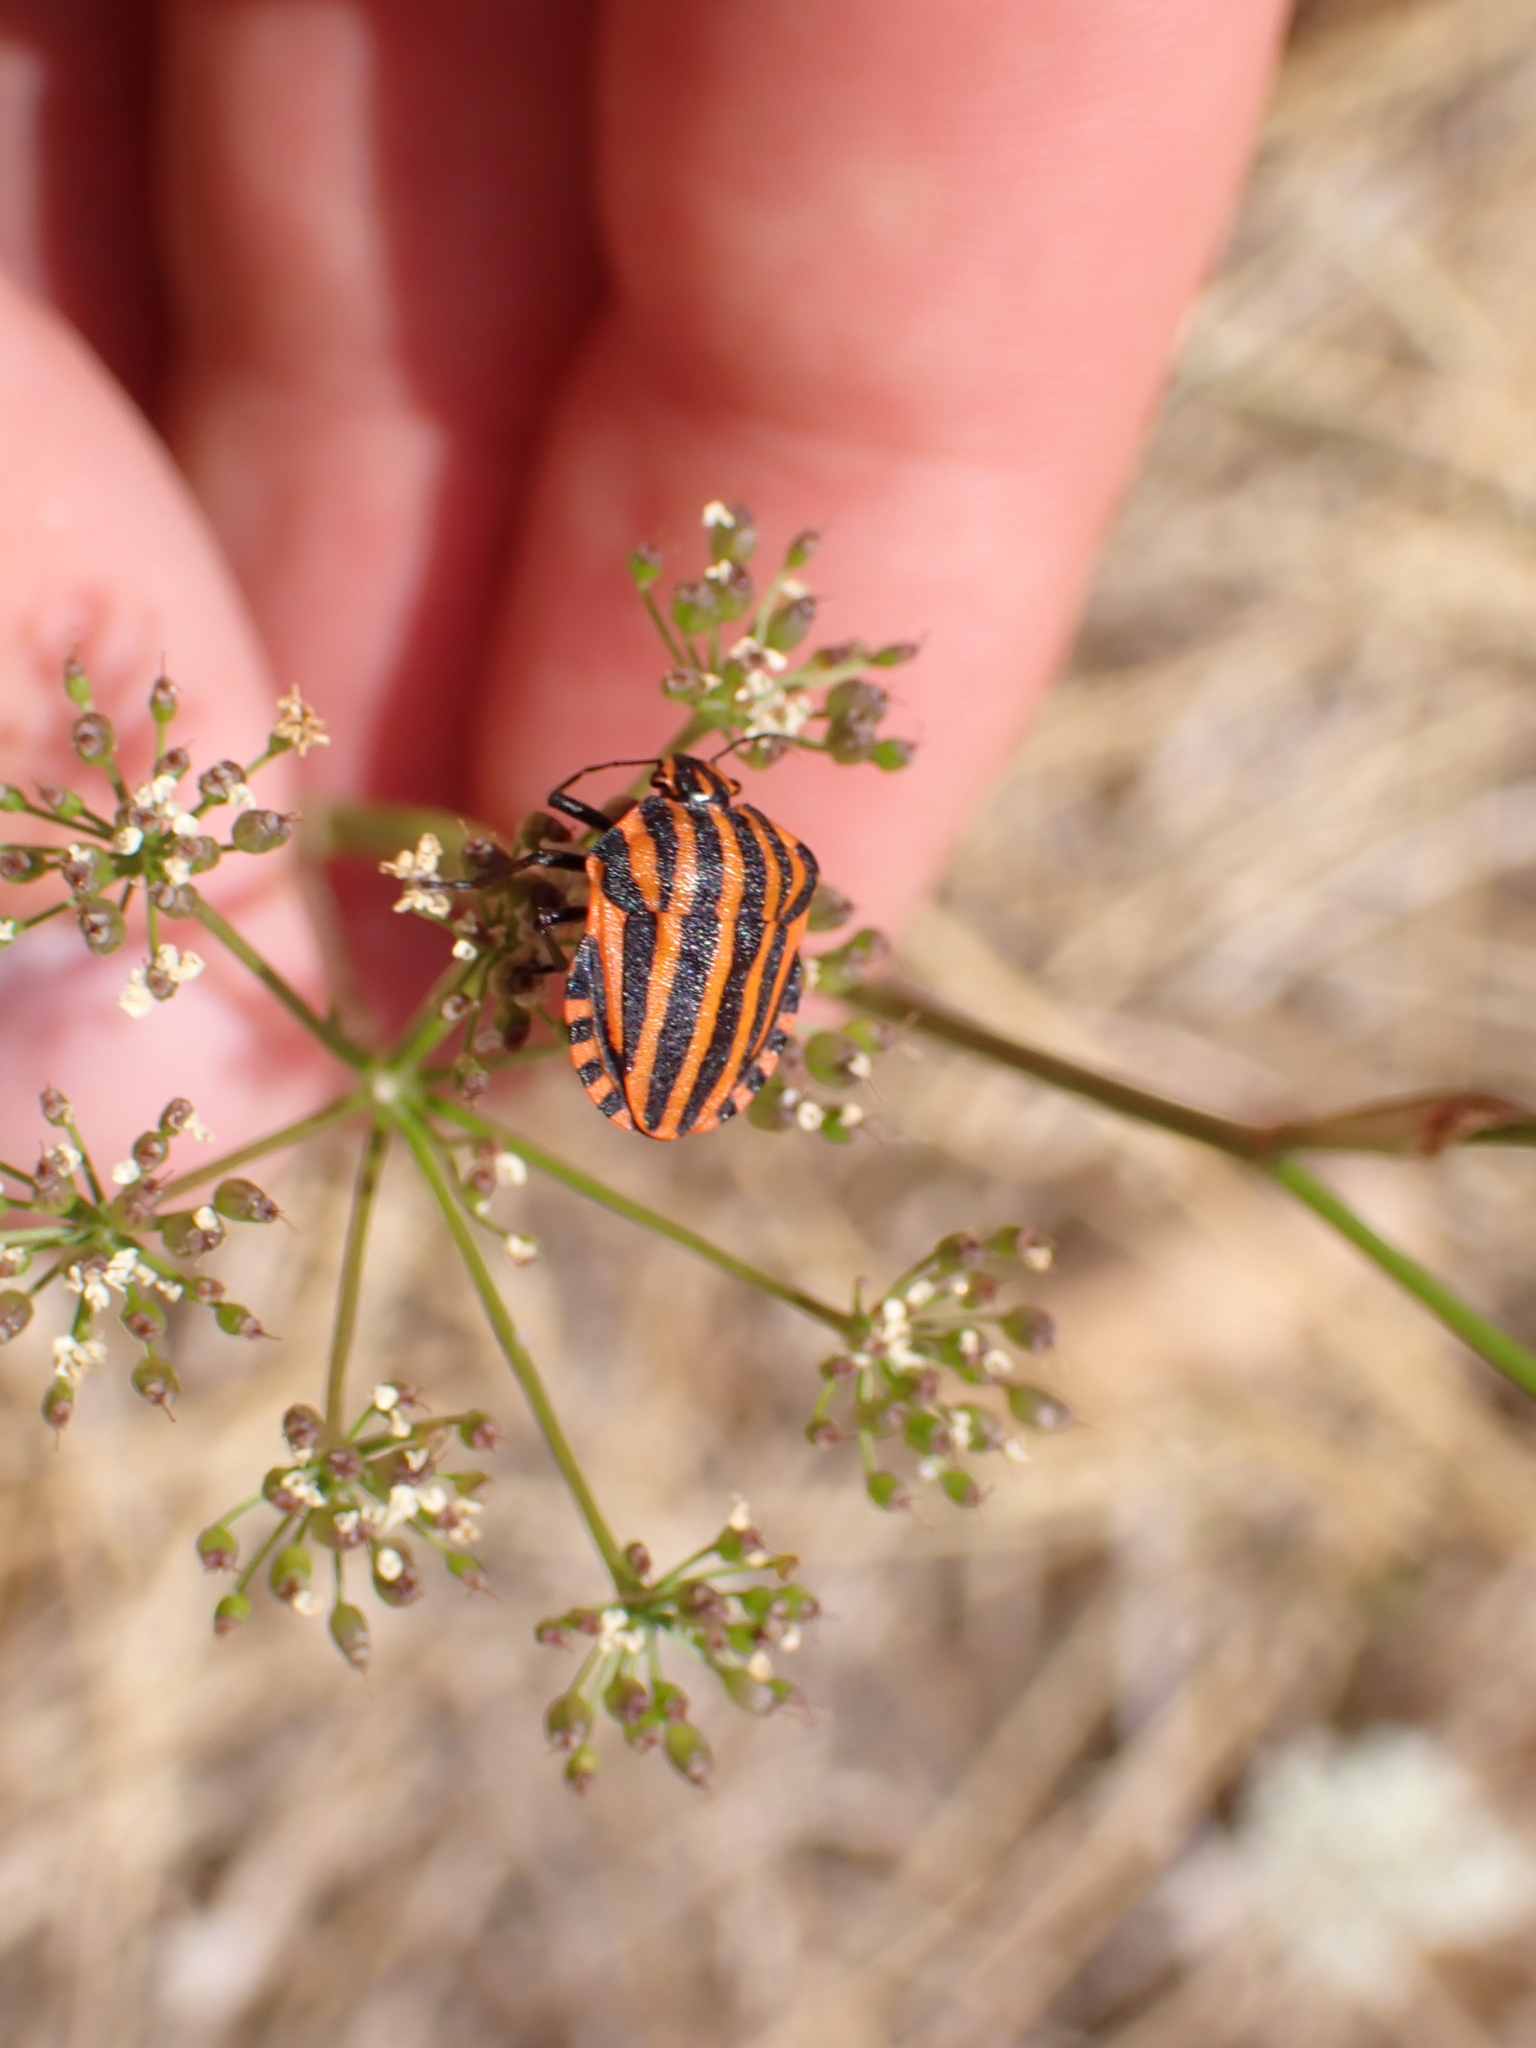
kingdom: Animalia
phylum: Arthropoda
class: Insecta
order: Hemiptera
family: Pentatomidae
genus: Graphosoma
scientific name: Graphosoma italicum
